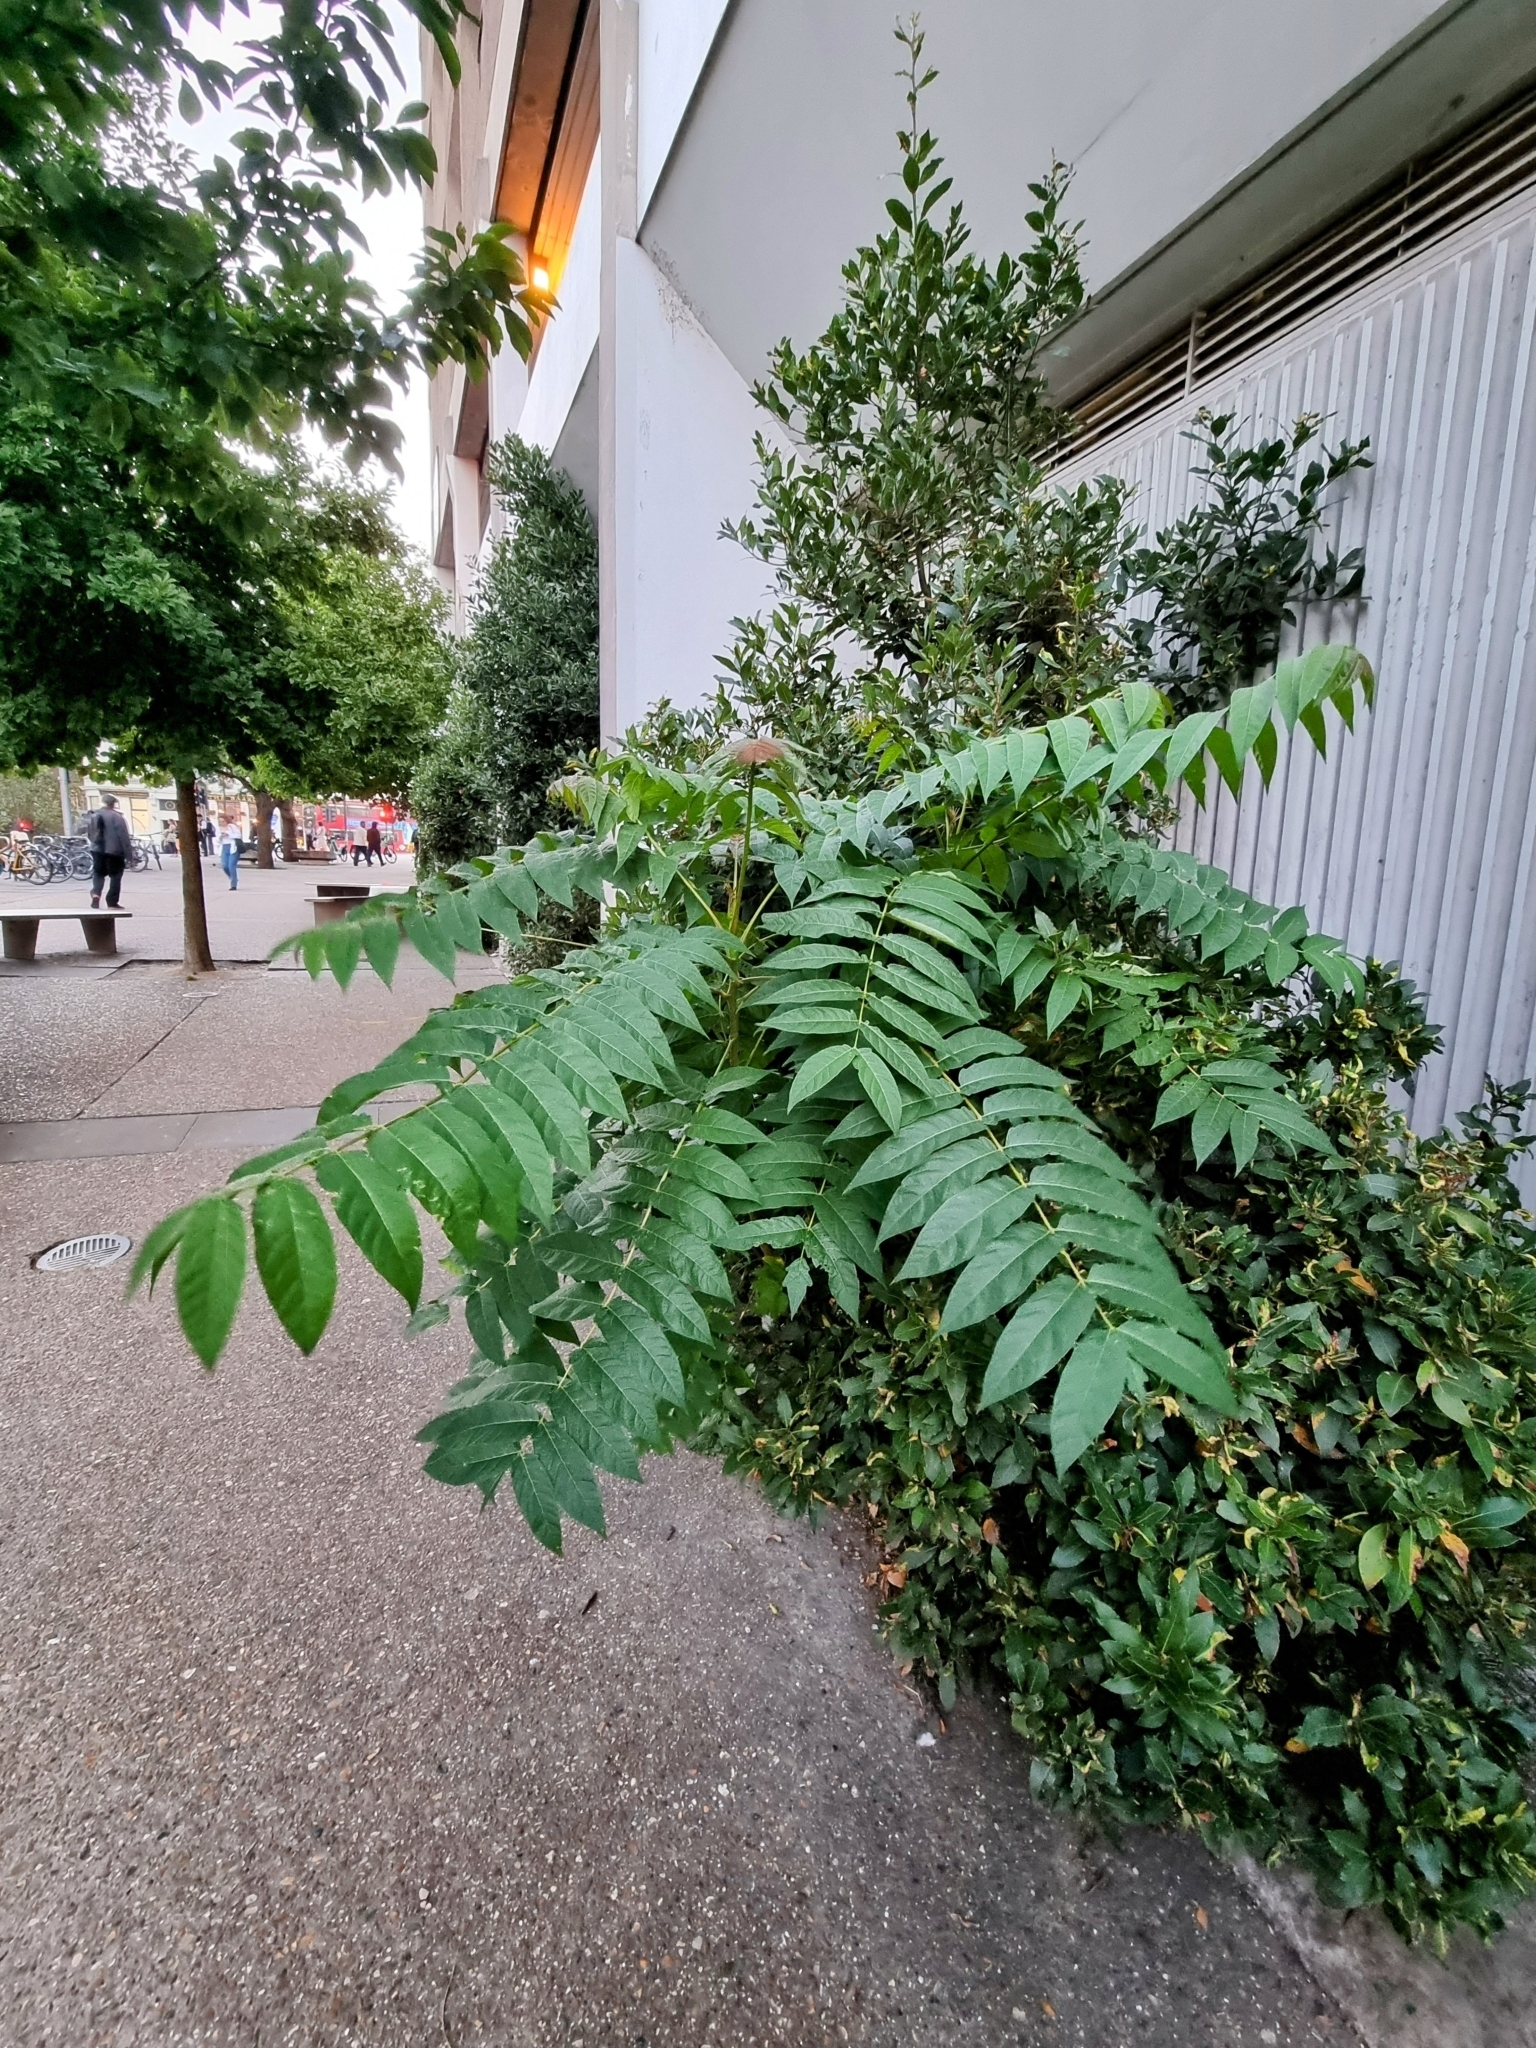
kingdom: Plantae
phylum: Tracheophyta
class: Magnoliopsida
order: Sapindales
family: Simaroubaceae
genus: Ailanthus
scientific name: Ailanthus altissima
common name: Tree-of-heaven
